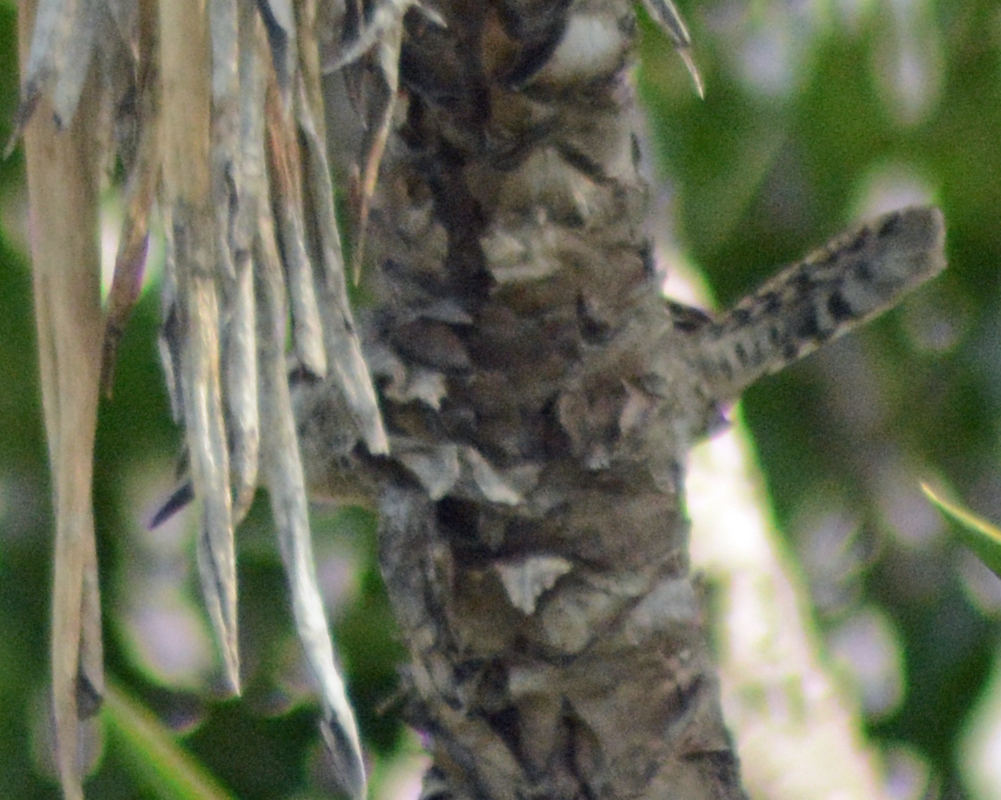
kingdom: Animalia
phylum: Chordata
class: Aves
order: Passeriformes
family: Troglodytidae
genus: Campylorhynchus
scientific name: Campylorhynchus jocosus
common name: Boucard's wren
